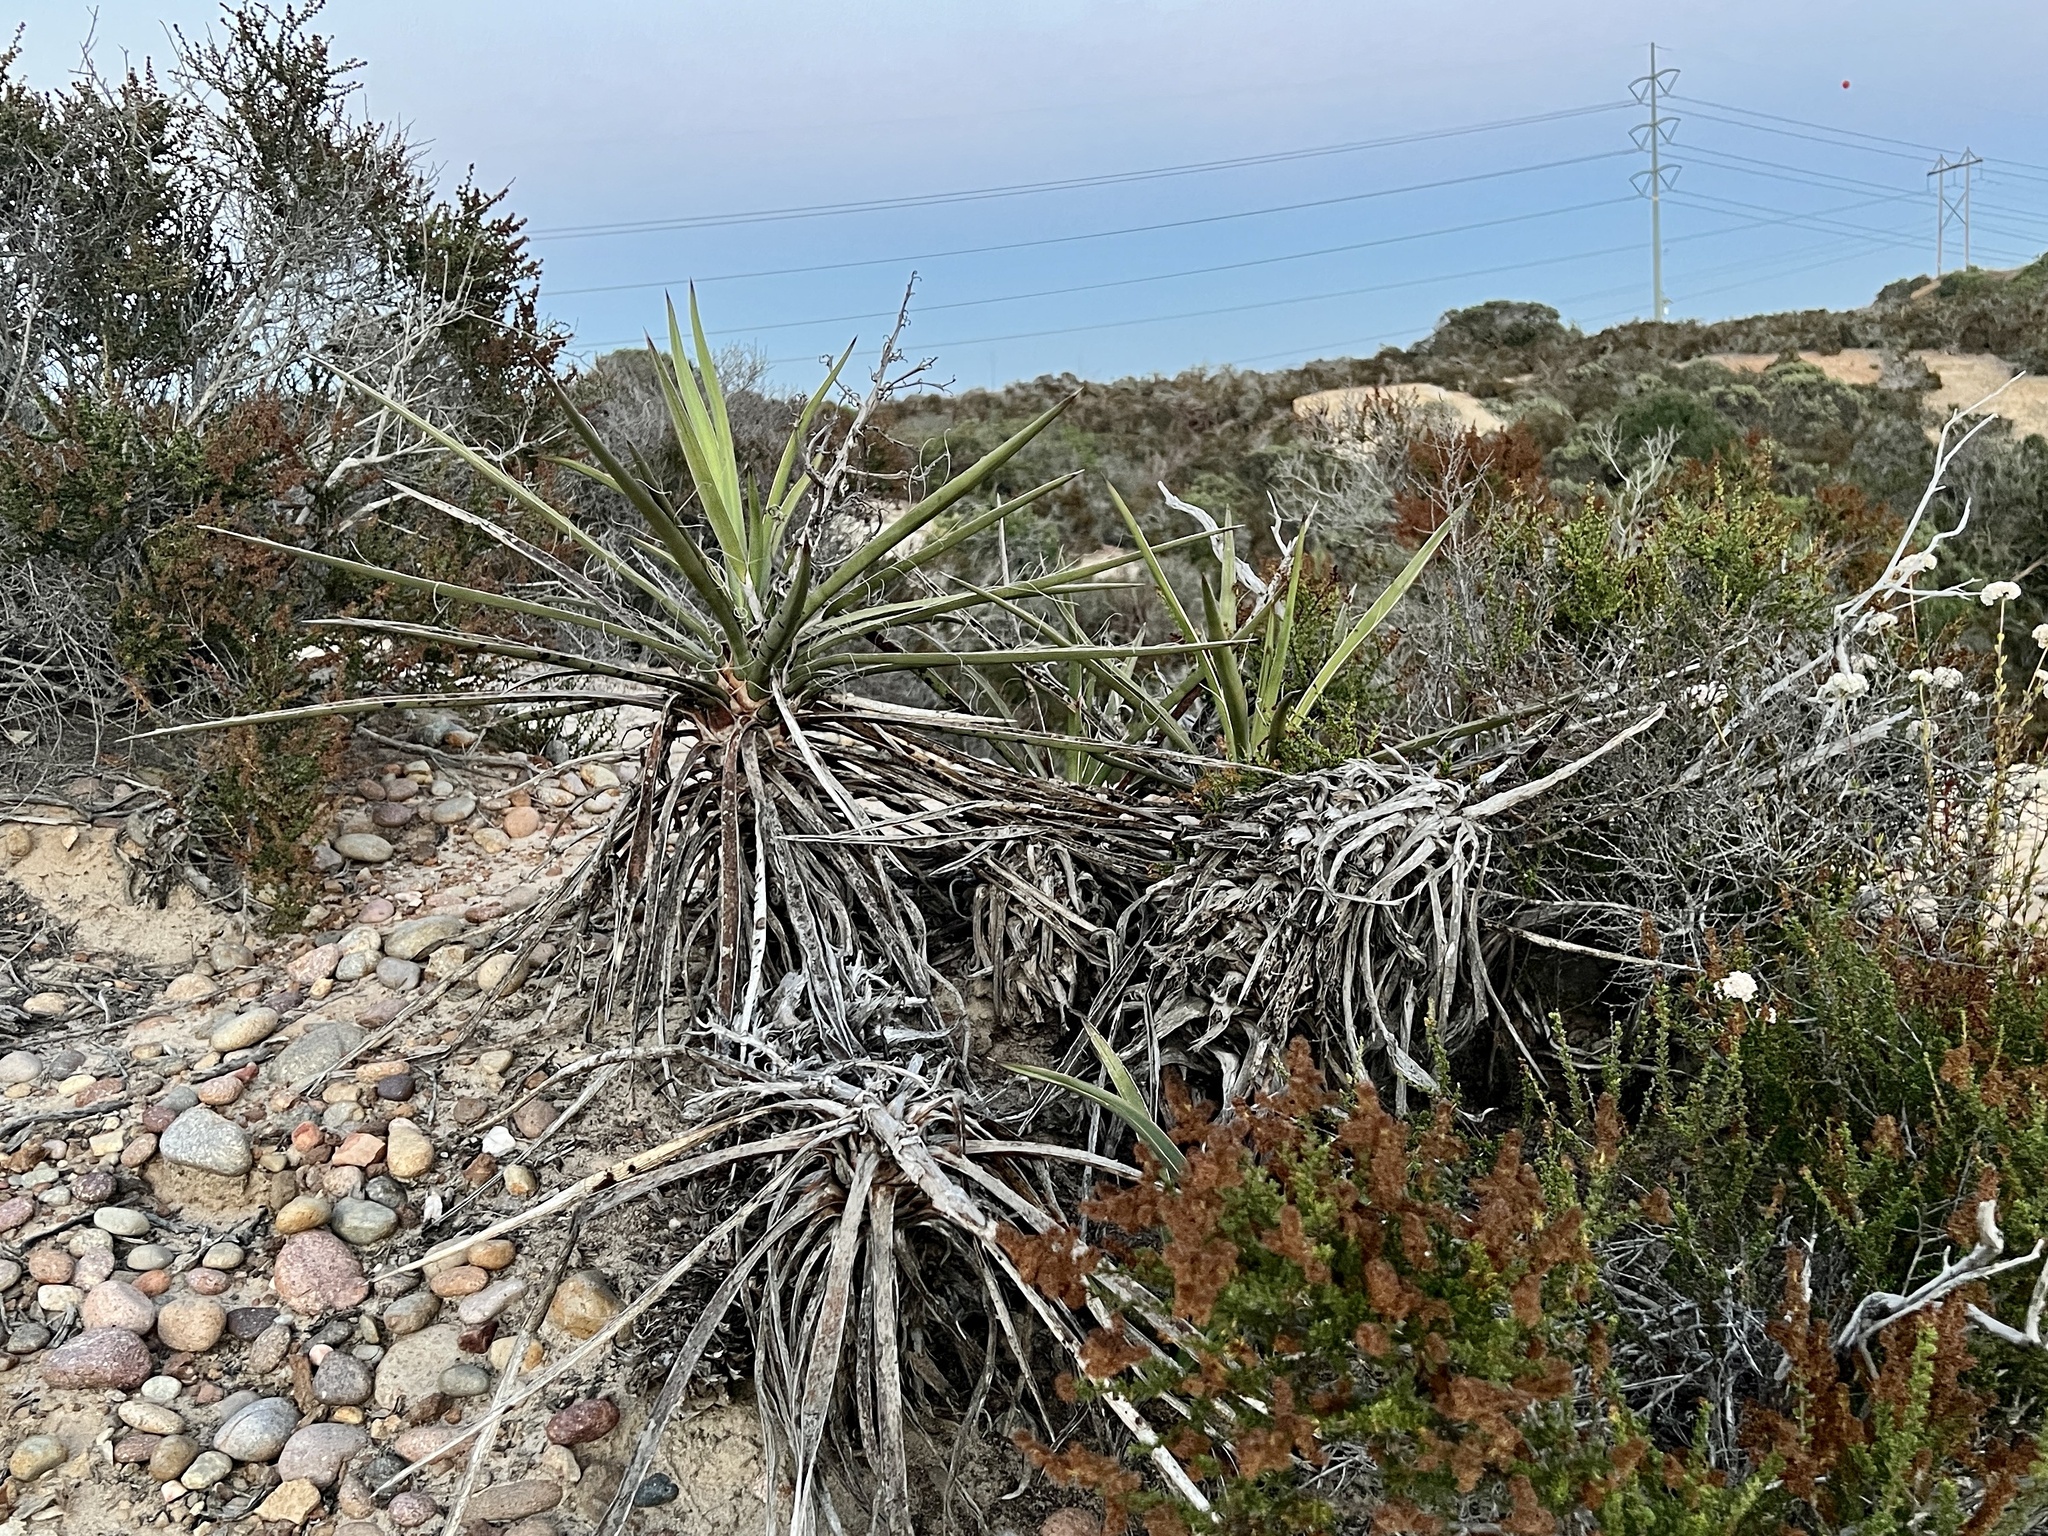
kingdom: Plantae
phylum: Tracheophyta
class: Liliopsida
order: Asparagales
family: Asparagaceae
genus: Yucca
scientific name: Yucca schidigera
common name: Mojave yucca
